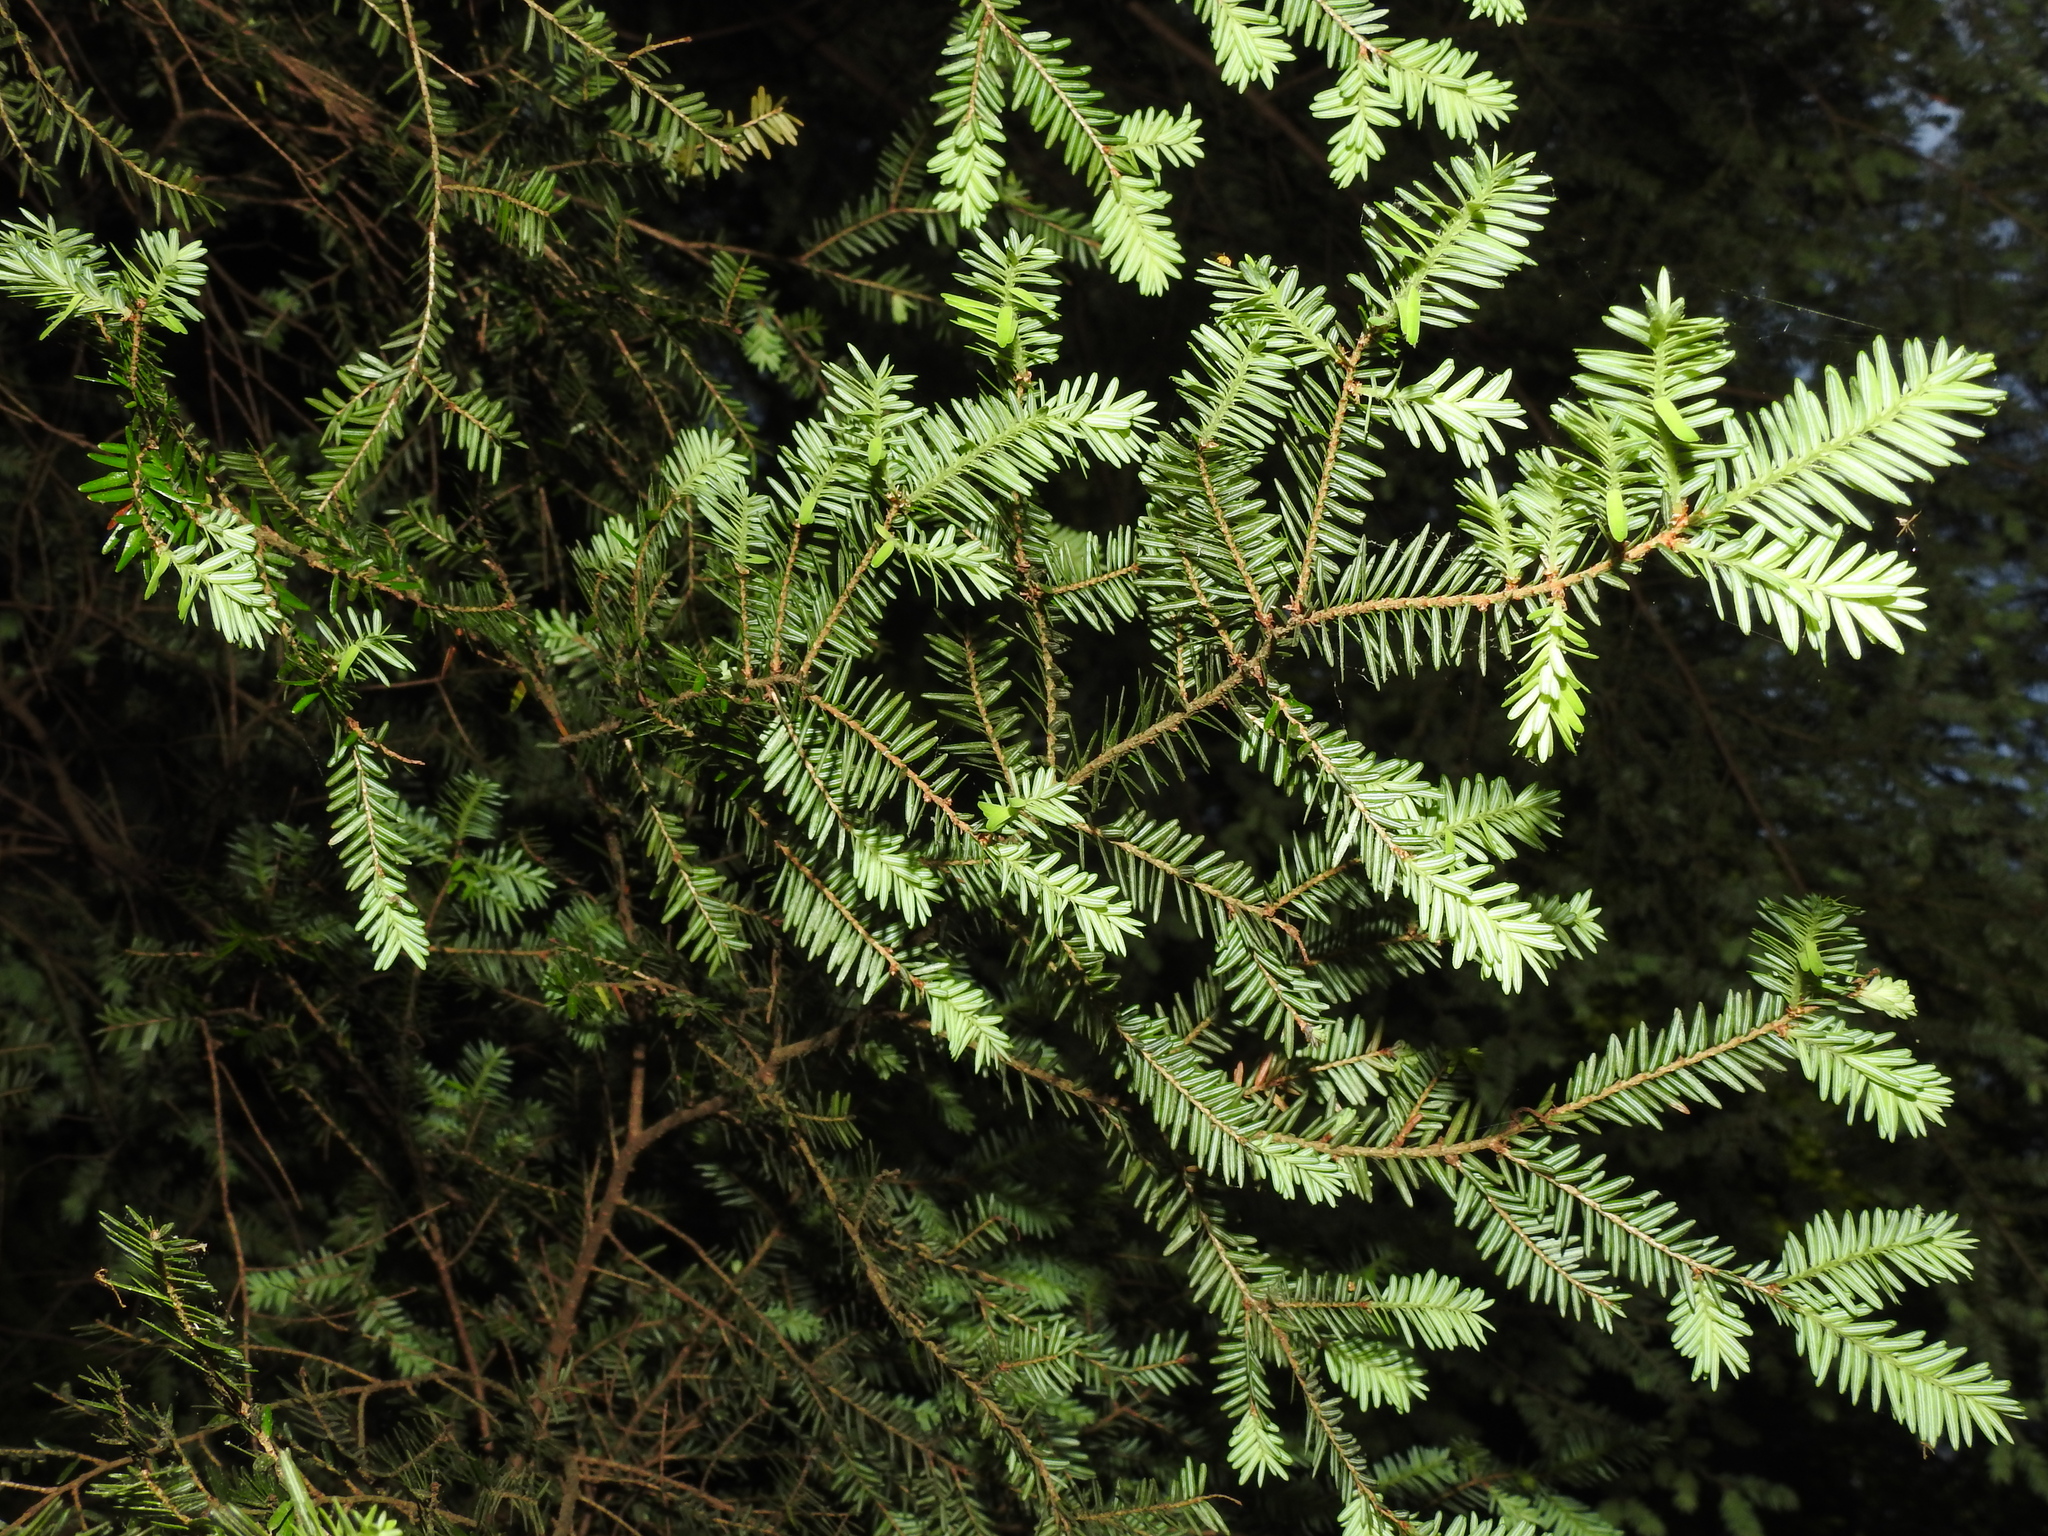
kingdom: Plantae
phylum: Tracheophyta
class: Pinopsida
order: Pinales
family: Pinaceae
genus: Tsuga
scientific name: Tsuga canadensis
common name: Eastern hemlock
